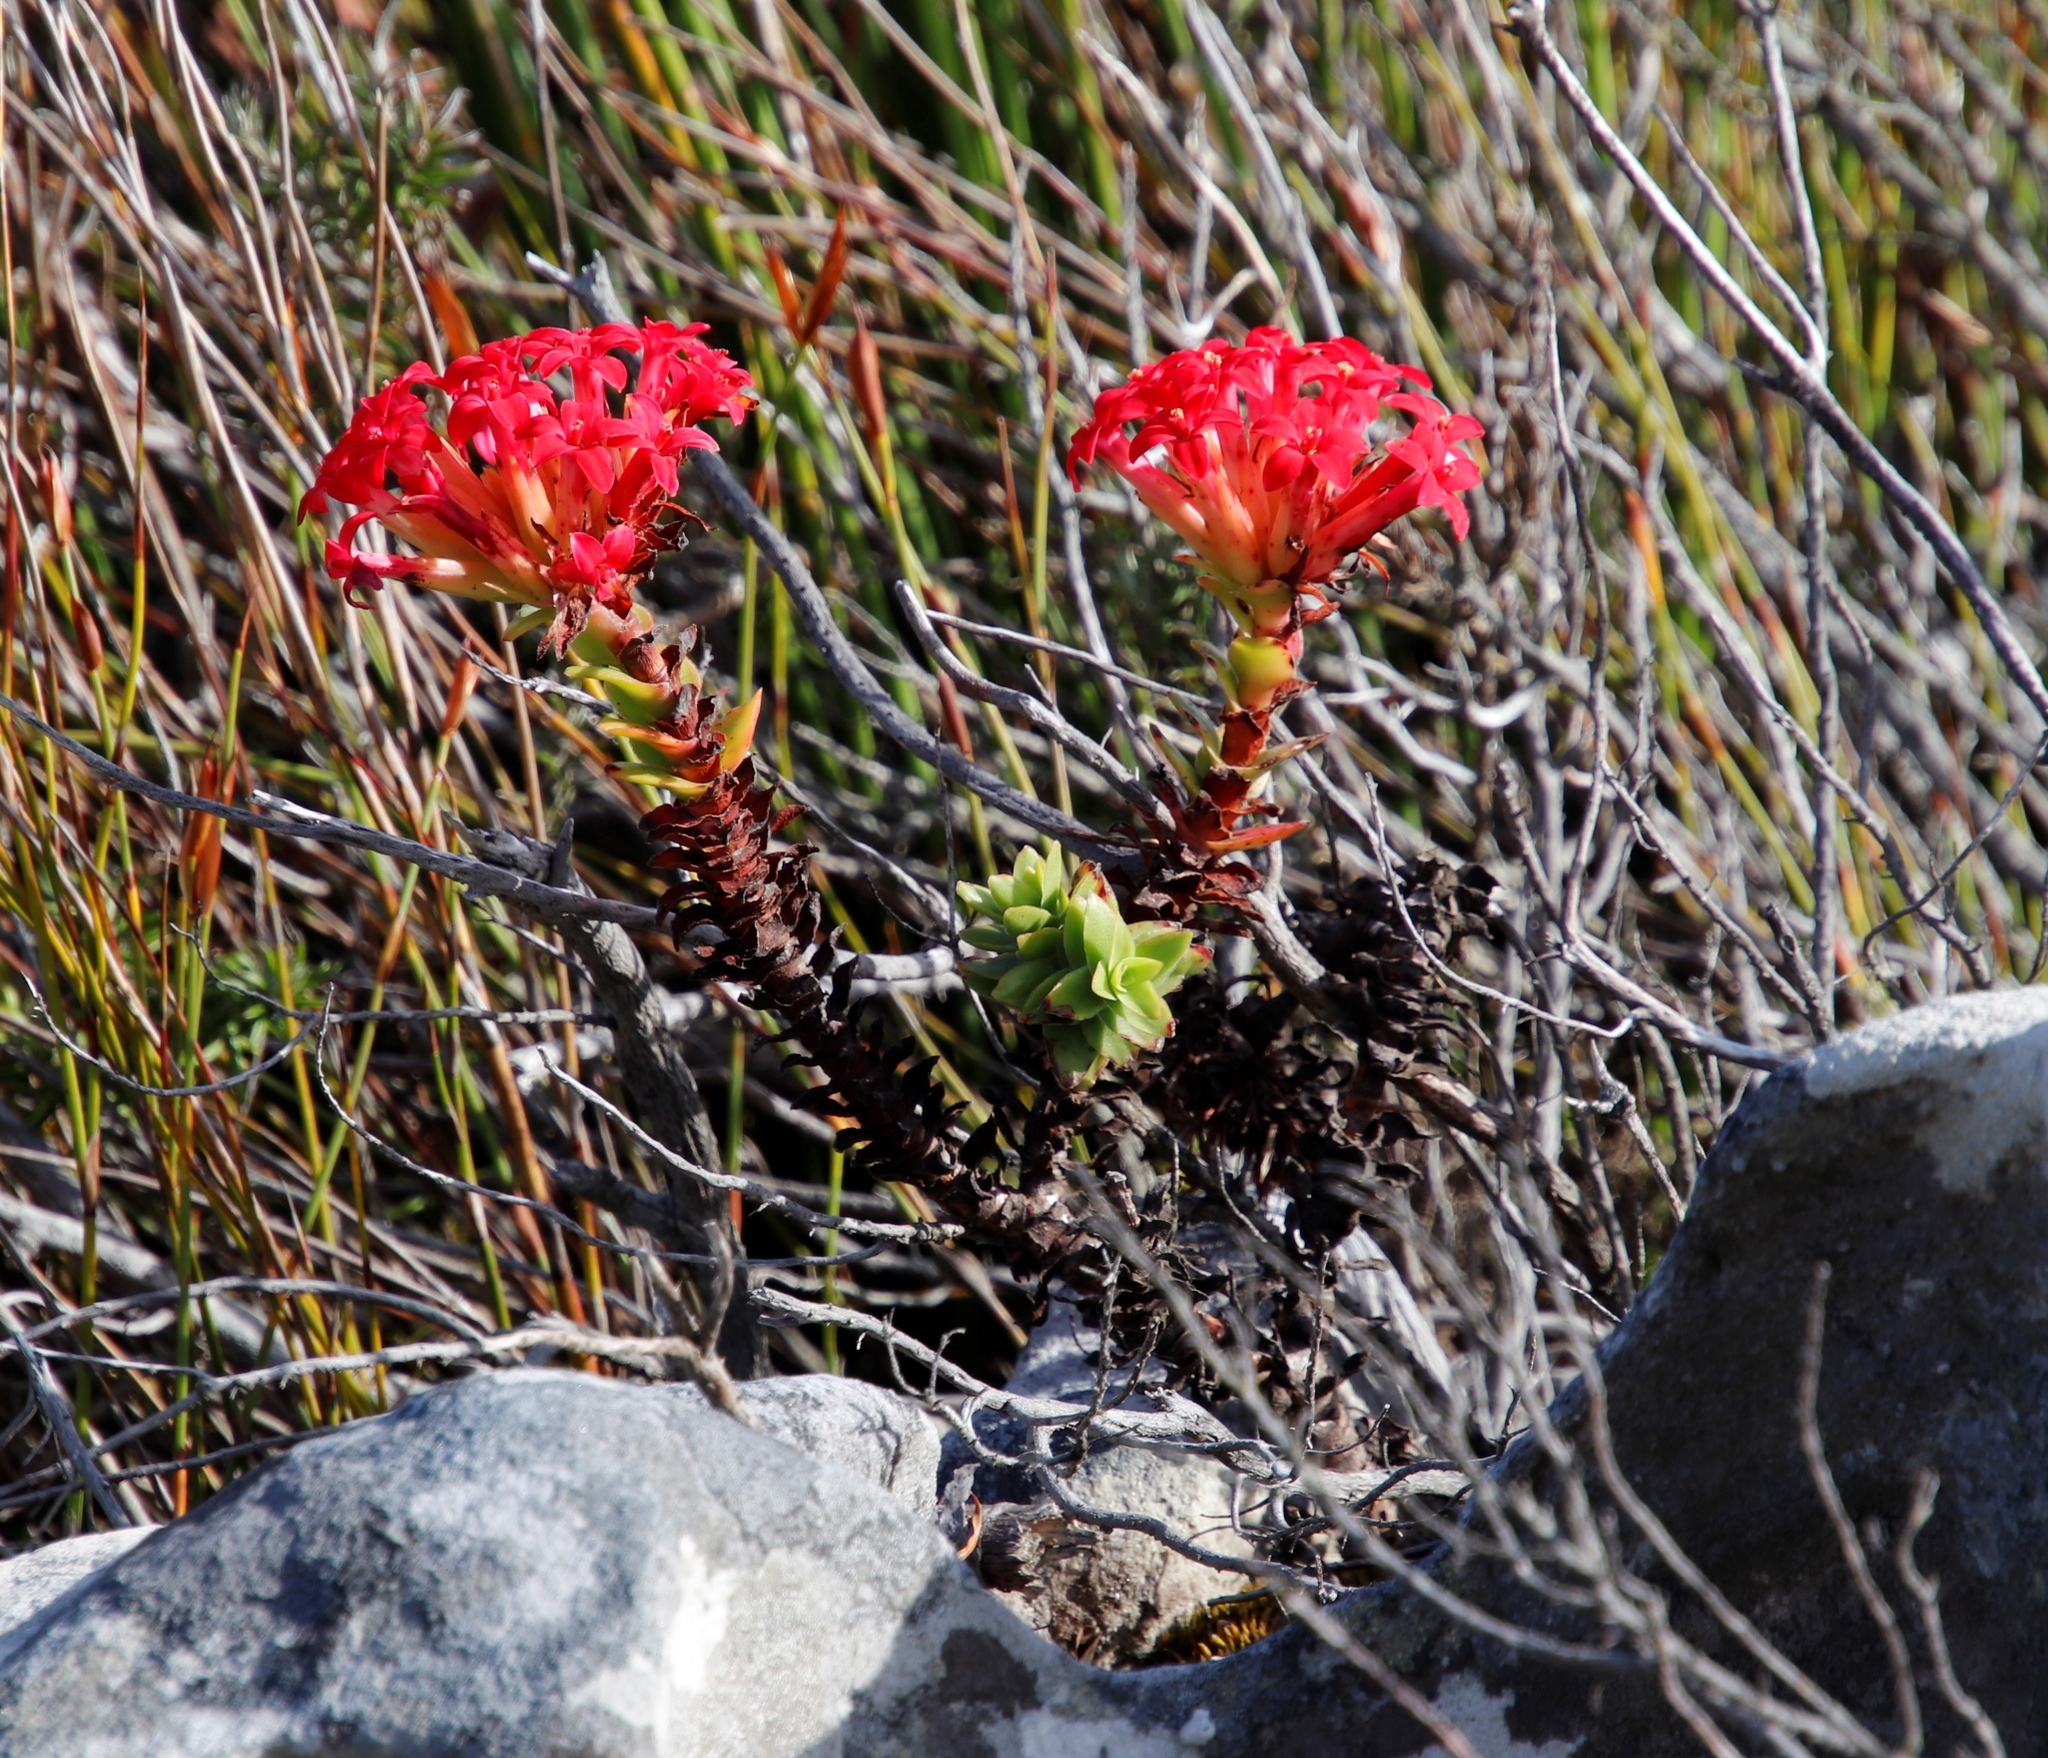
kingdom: Plantae
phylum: Tracheophyta
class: Magnoliopsida
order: Saxifragales
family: Crassulaceae
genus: Crassula
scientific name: Crassula coccinea
